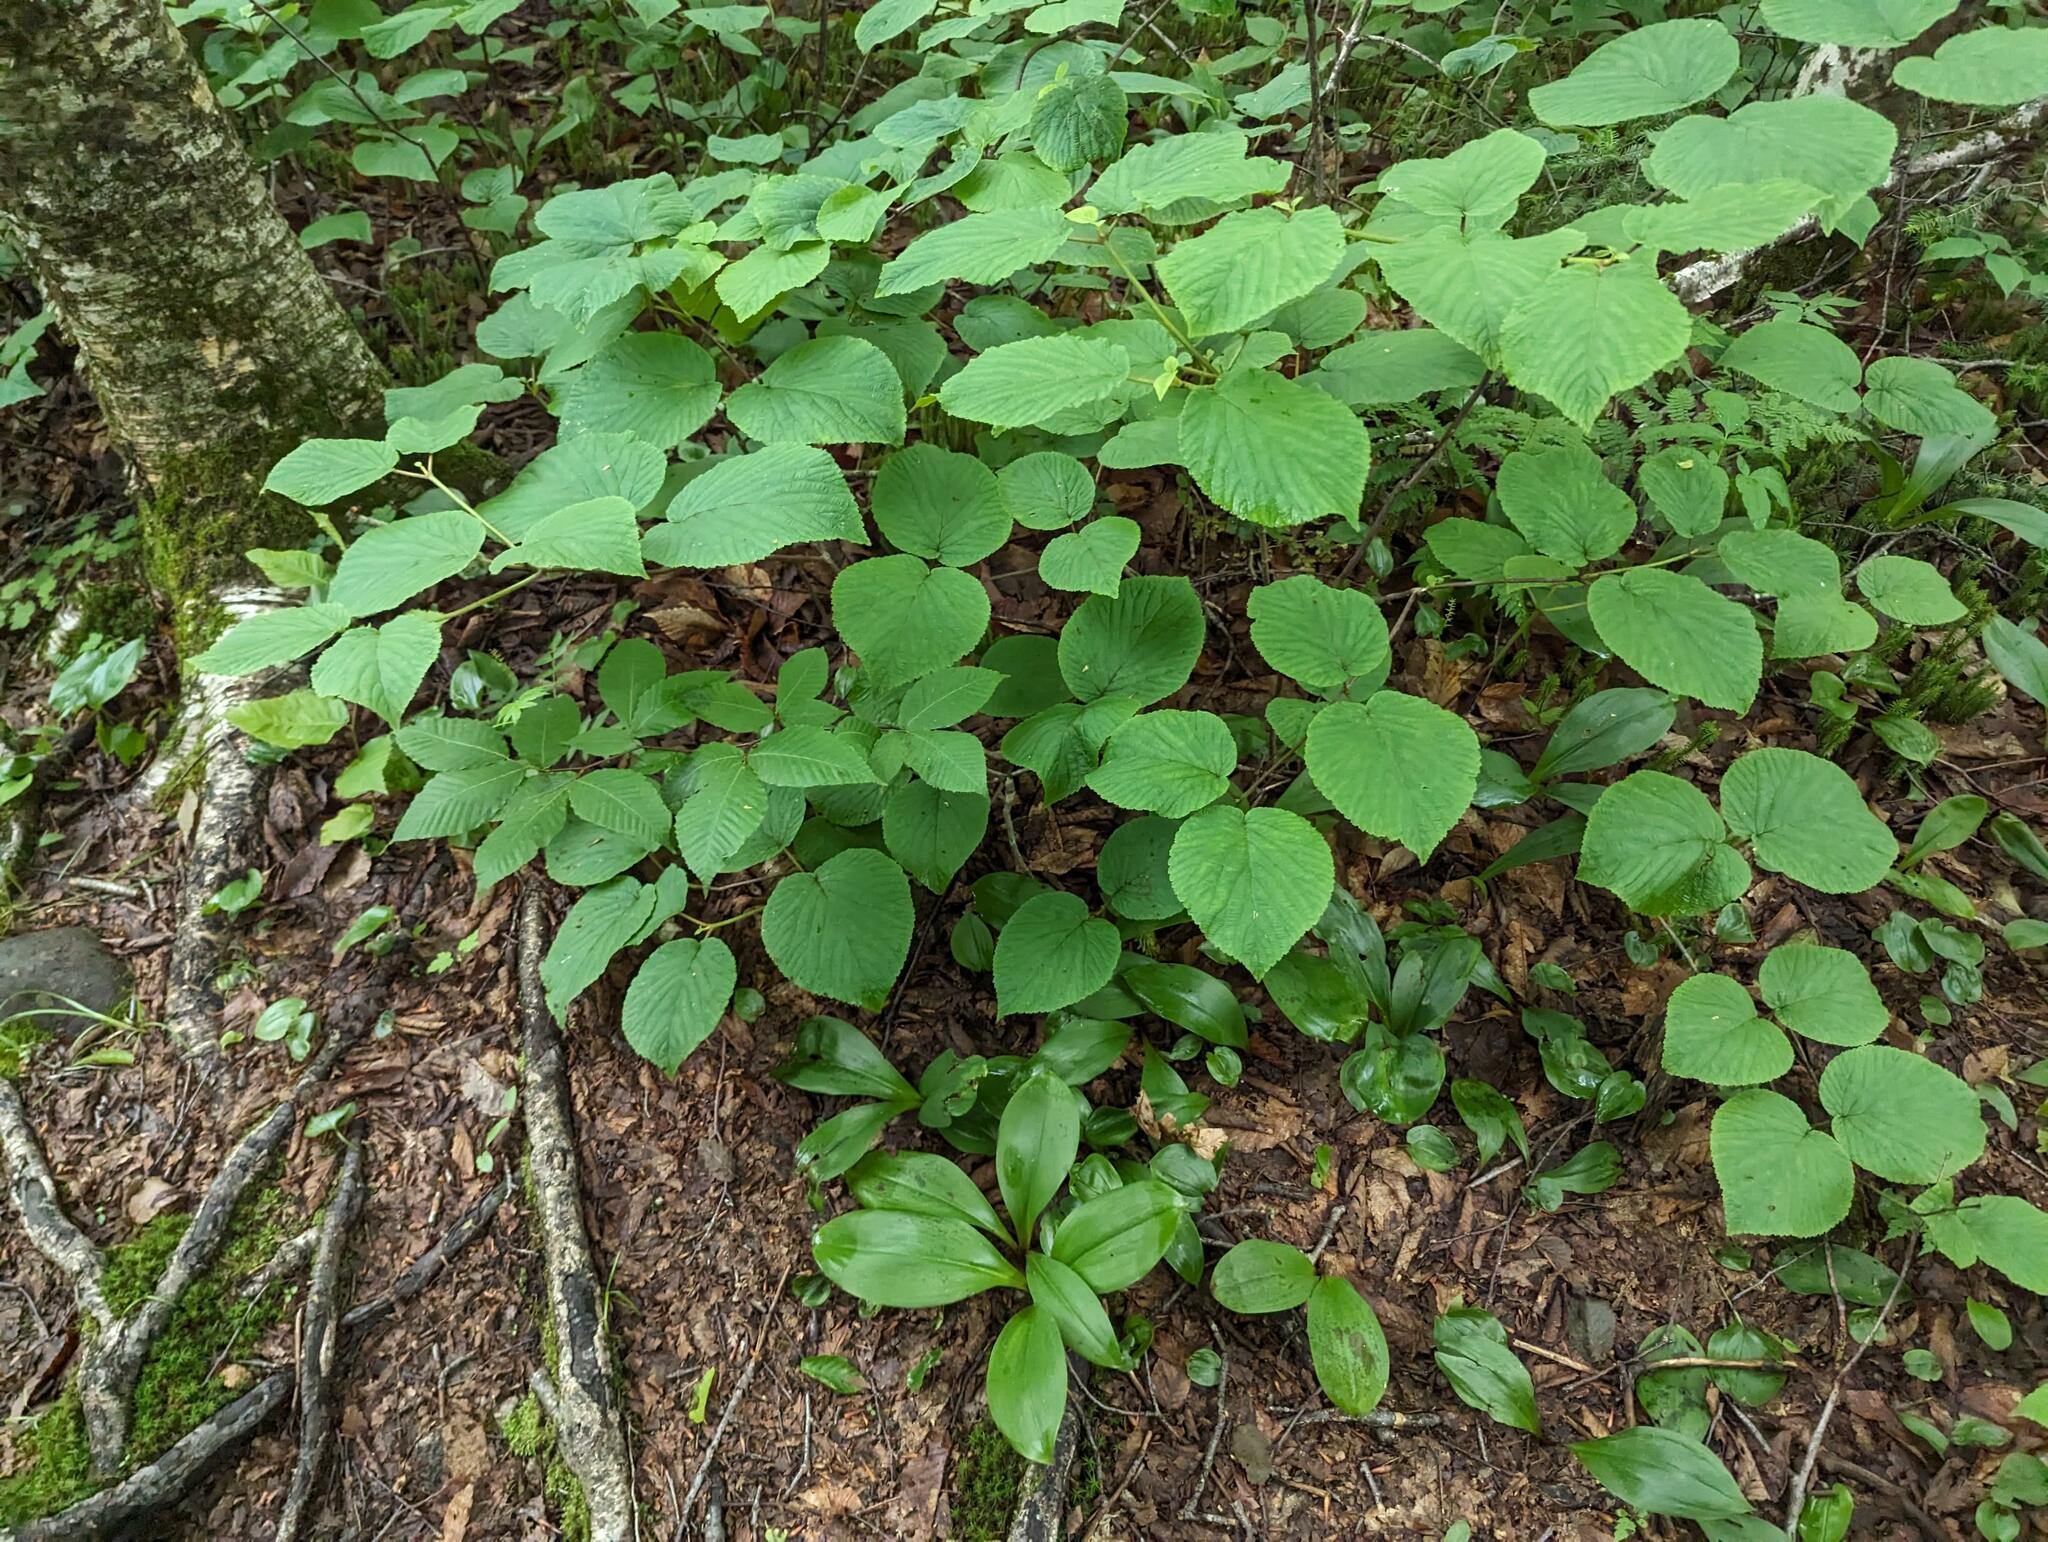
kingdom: Plantae
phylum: Tracheophyta
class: Magnoliopsida
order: Dipsacales
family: Viburnaceae
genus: Viburnum
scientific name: Viburnum lantanoides
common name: Hobblebush
